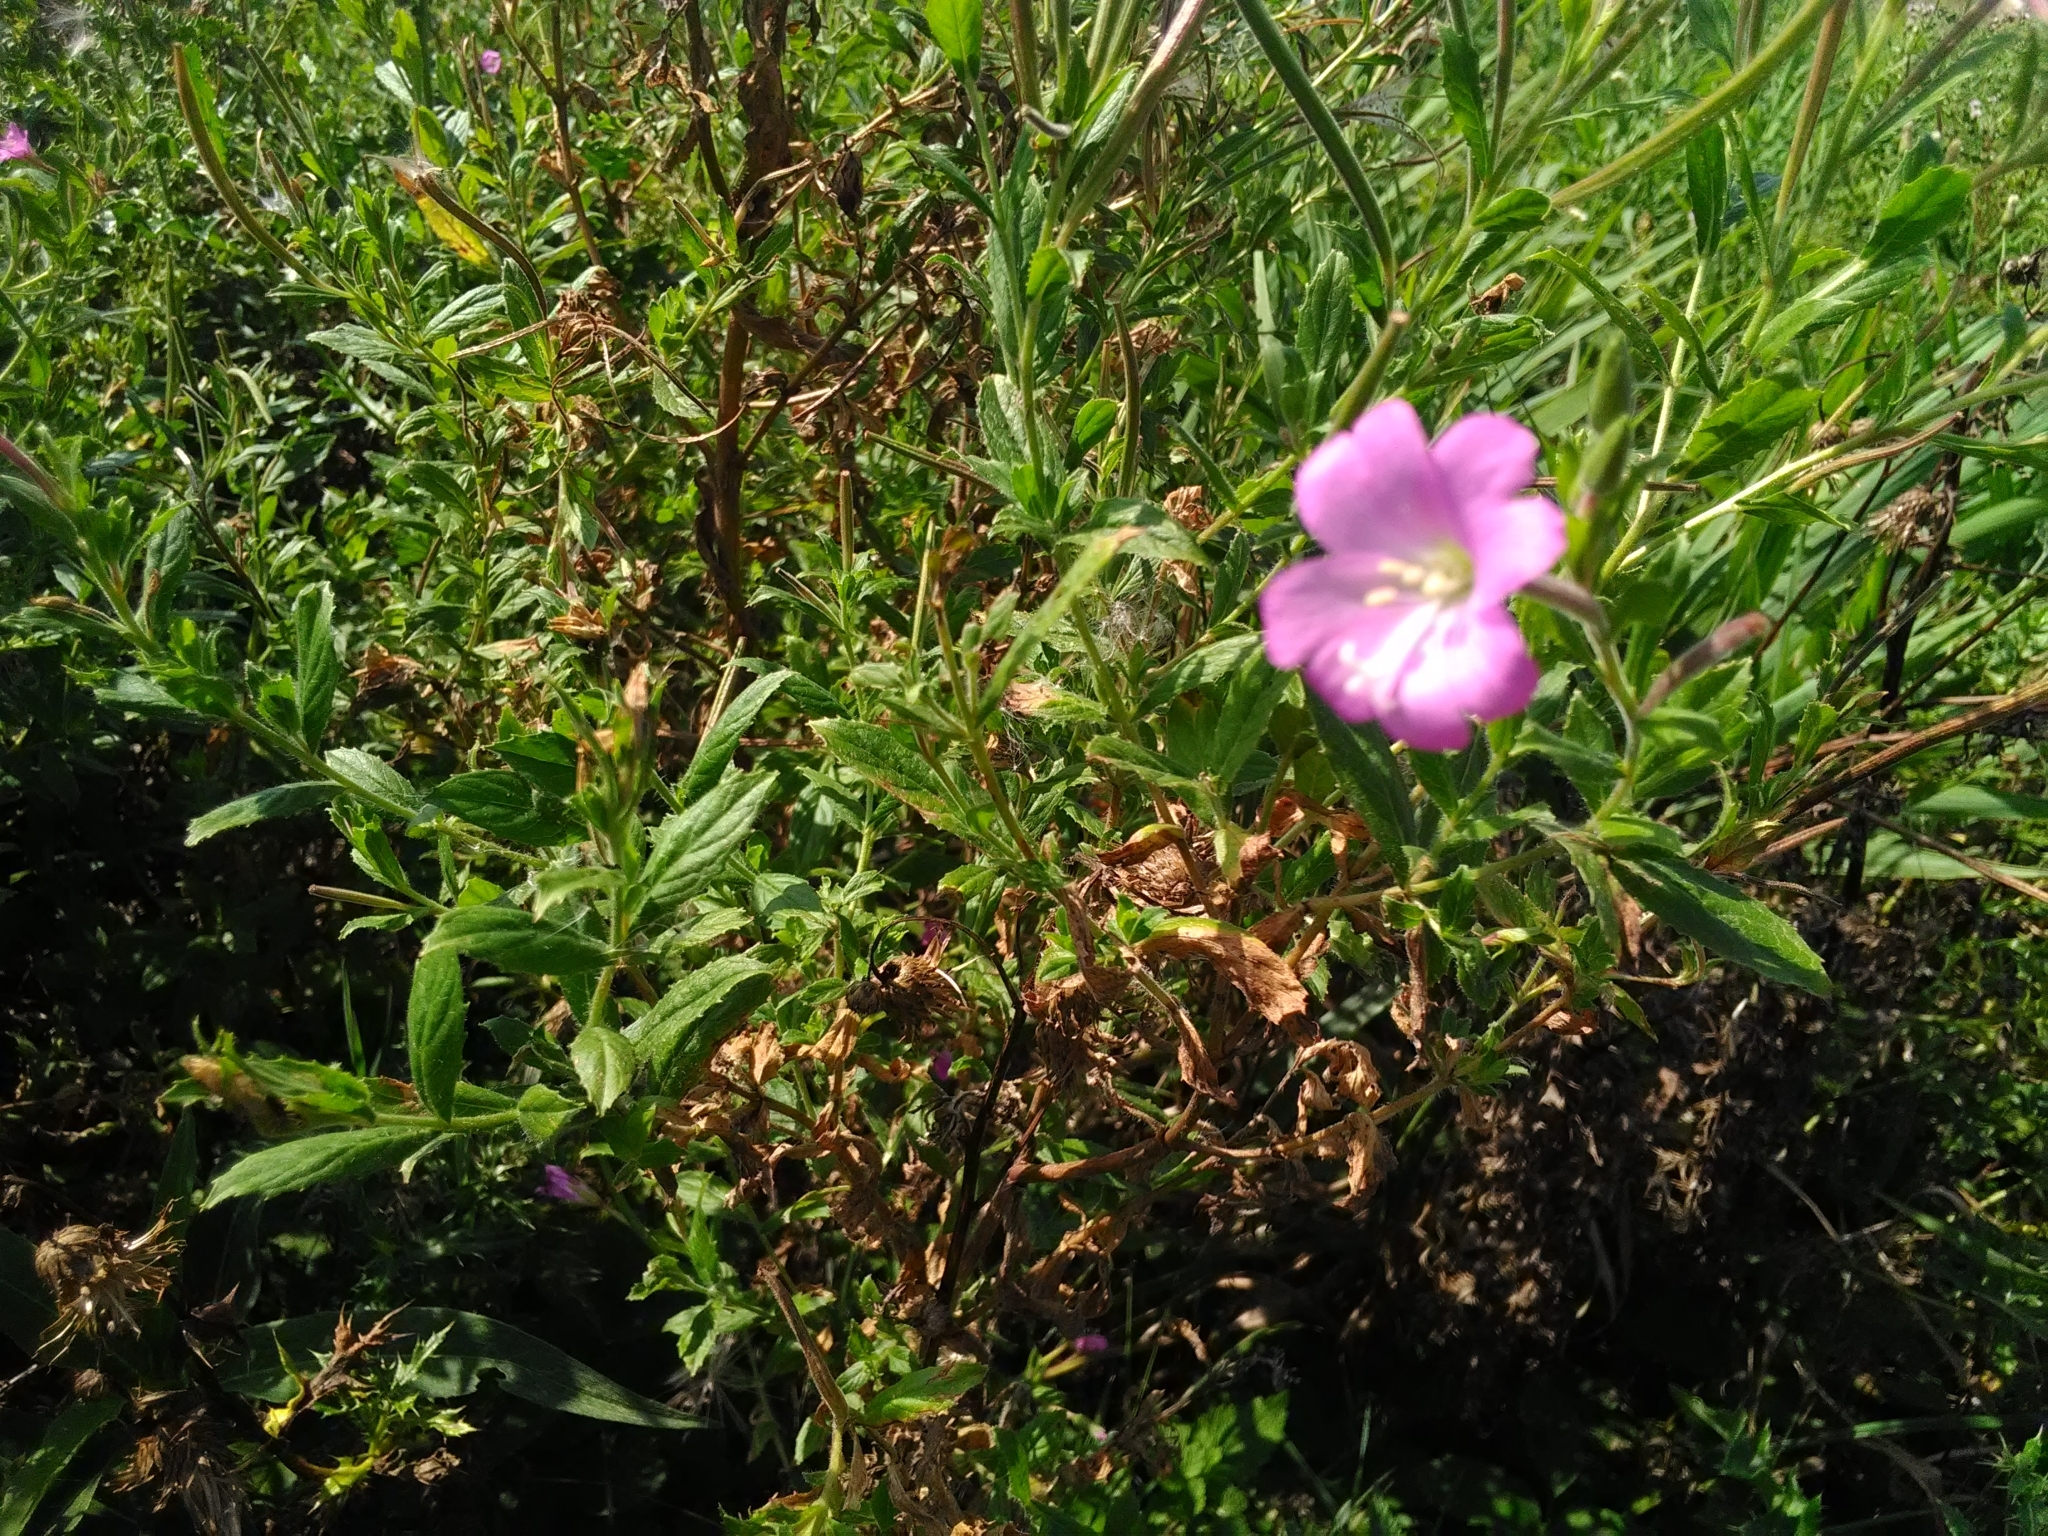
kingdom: Plantae
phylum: Tracheophyta
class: Magnoliopsida
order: Myrtales
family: Onagraceae
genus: Epilobium
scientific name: Epilobium hirsutum
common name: Great willowherb
